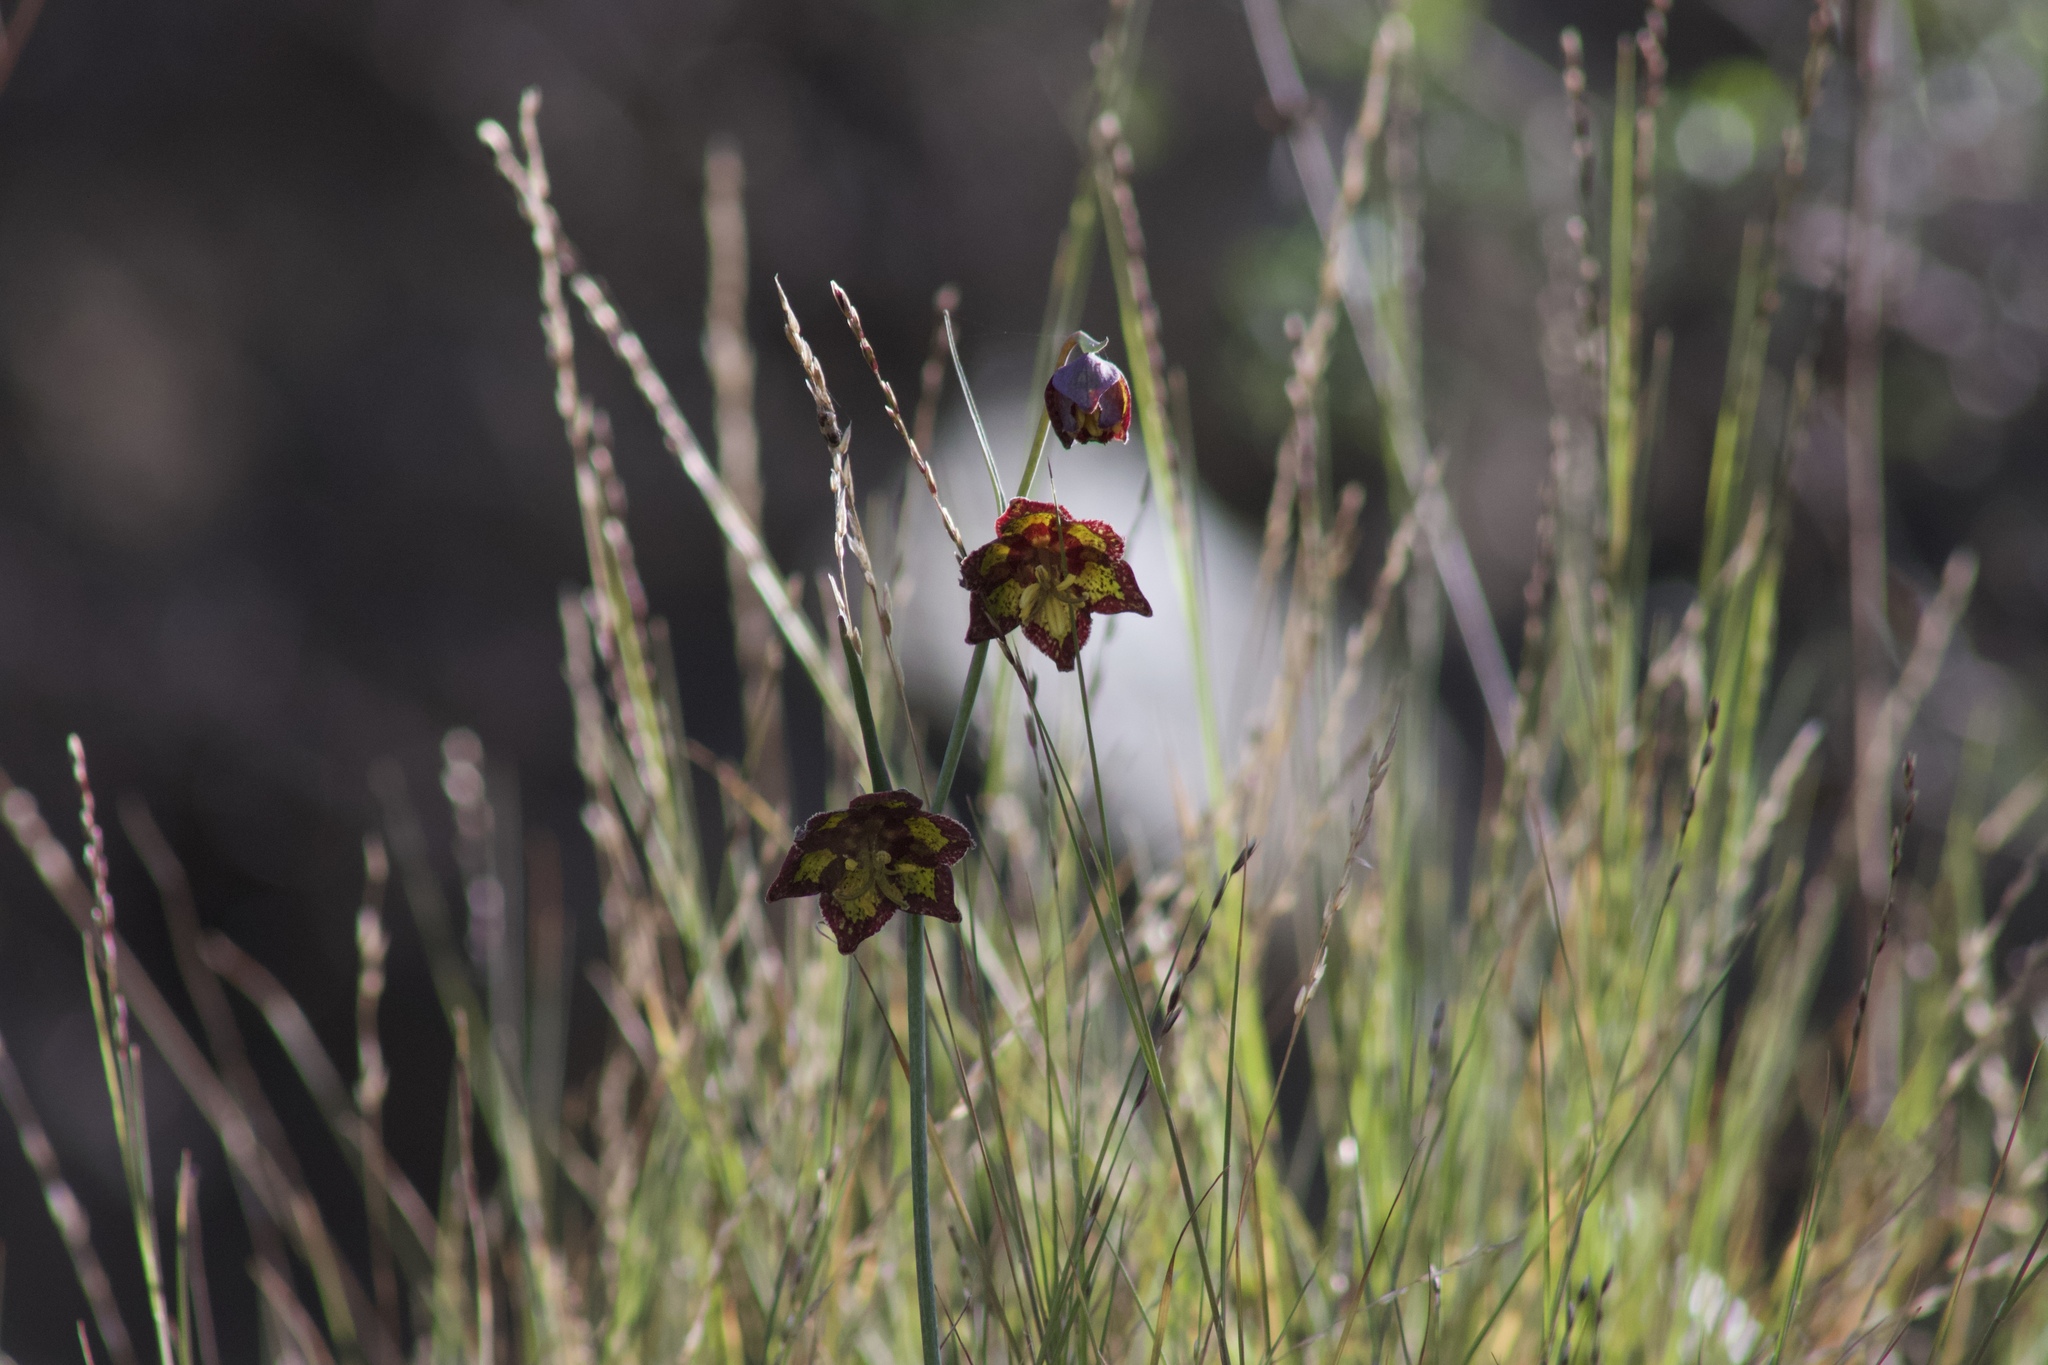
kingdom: Plantae
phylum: Tracheophyta
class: Liliopsida
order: Liliales
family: Liliaceae
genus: Fritillaria
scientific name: Fritillaria ojaiensis
